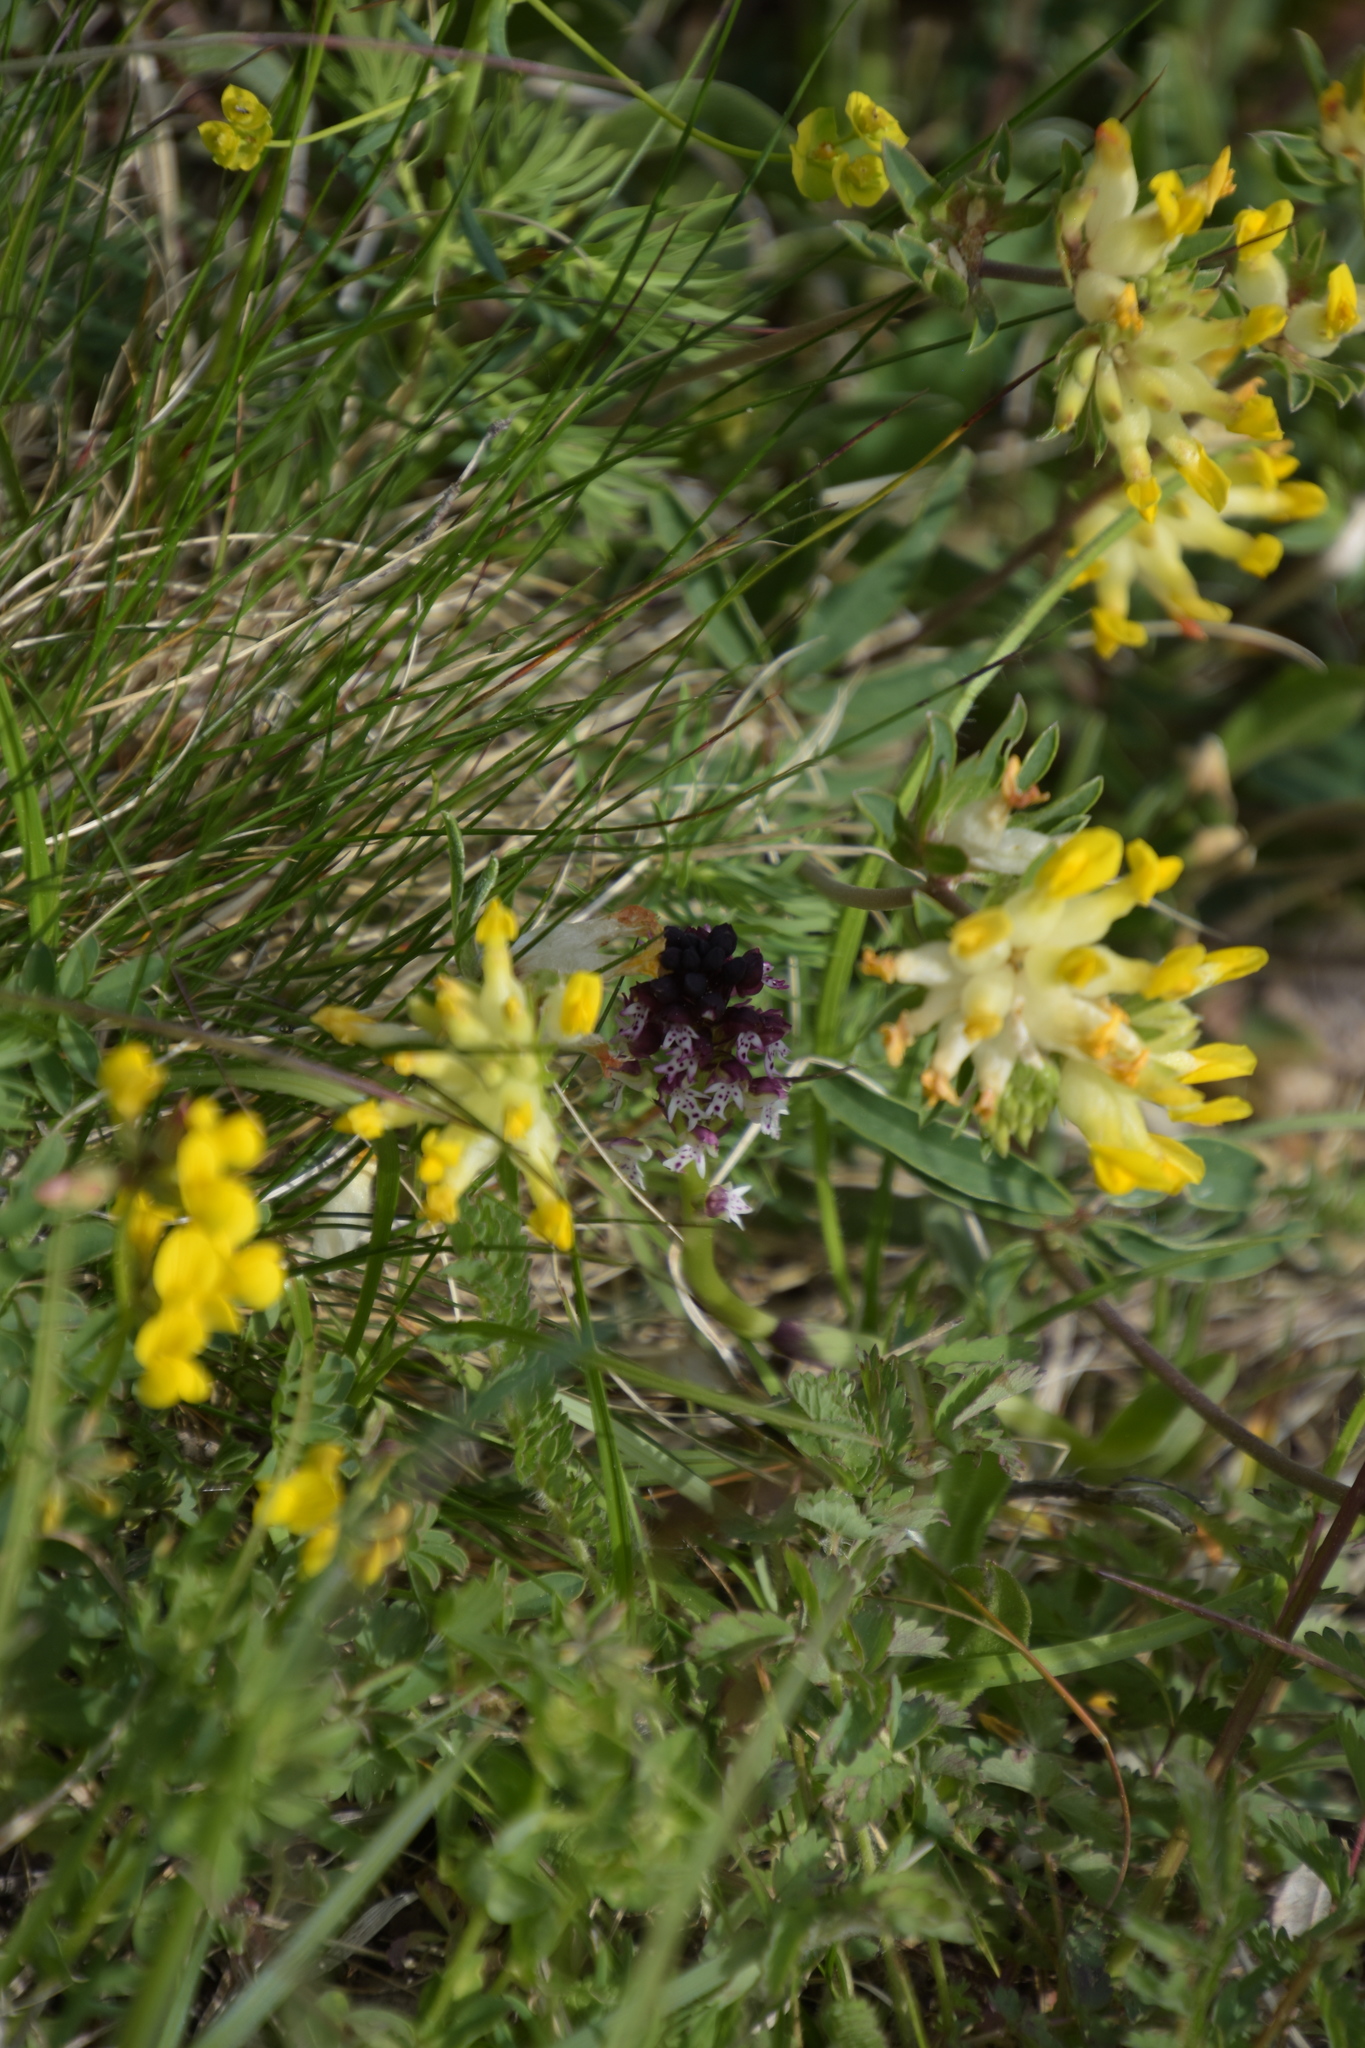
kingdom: Plantae
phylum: Tracheophyta
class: Liliopsida
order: Asparagales
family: Orchidaceae
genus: Neotinea
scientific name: Neotinea ustulata
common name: Burnt orchid
